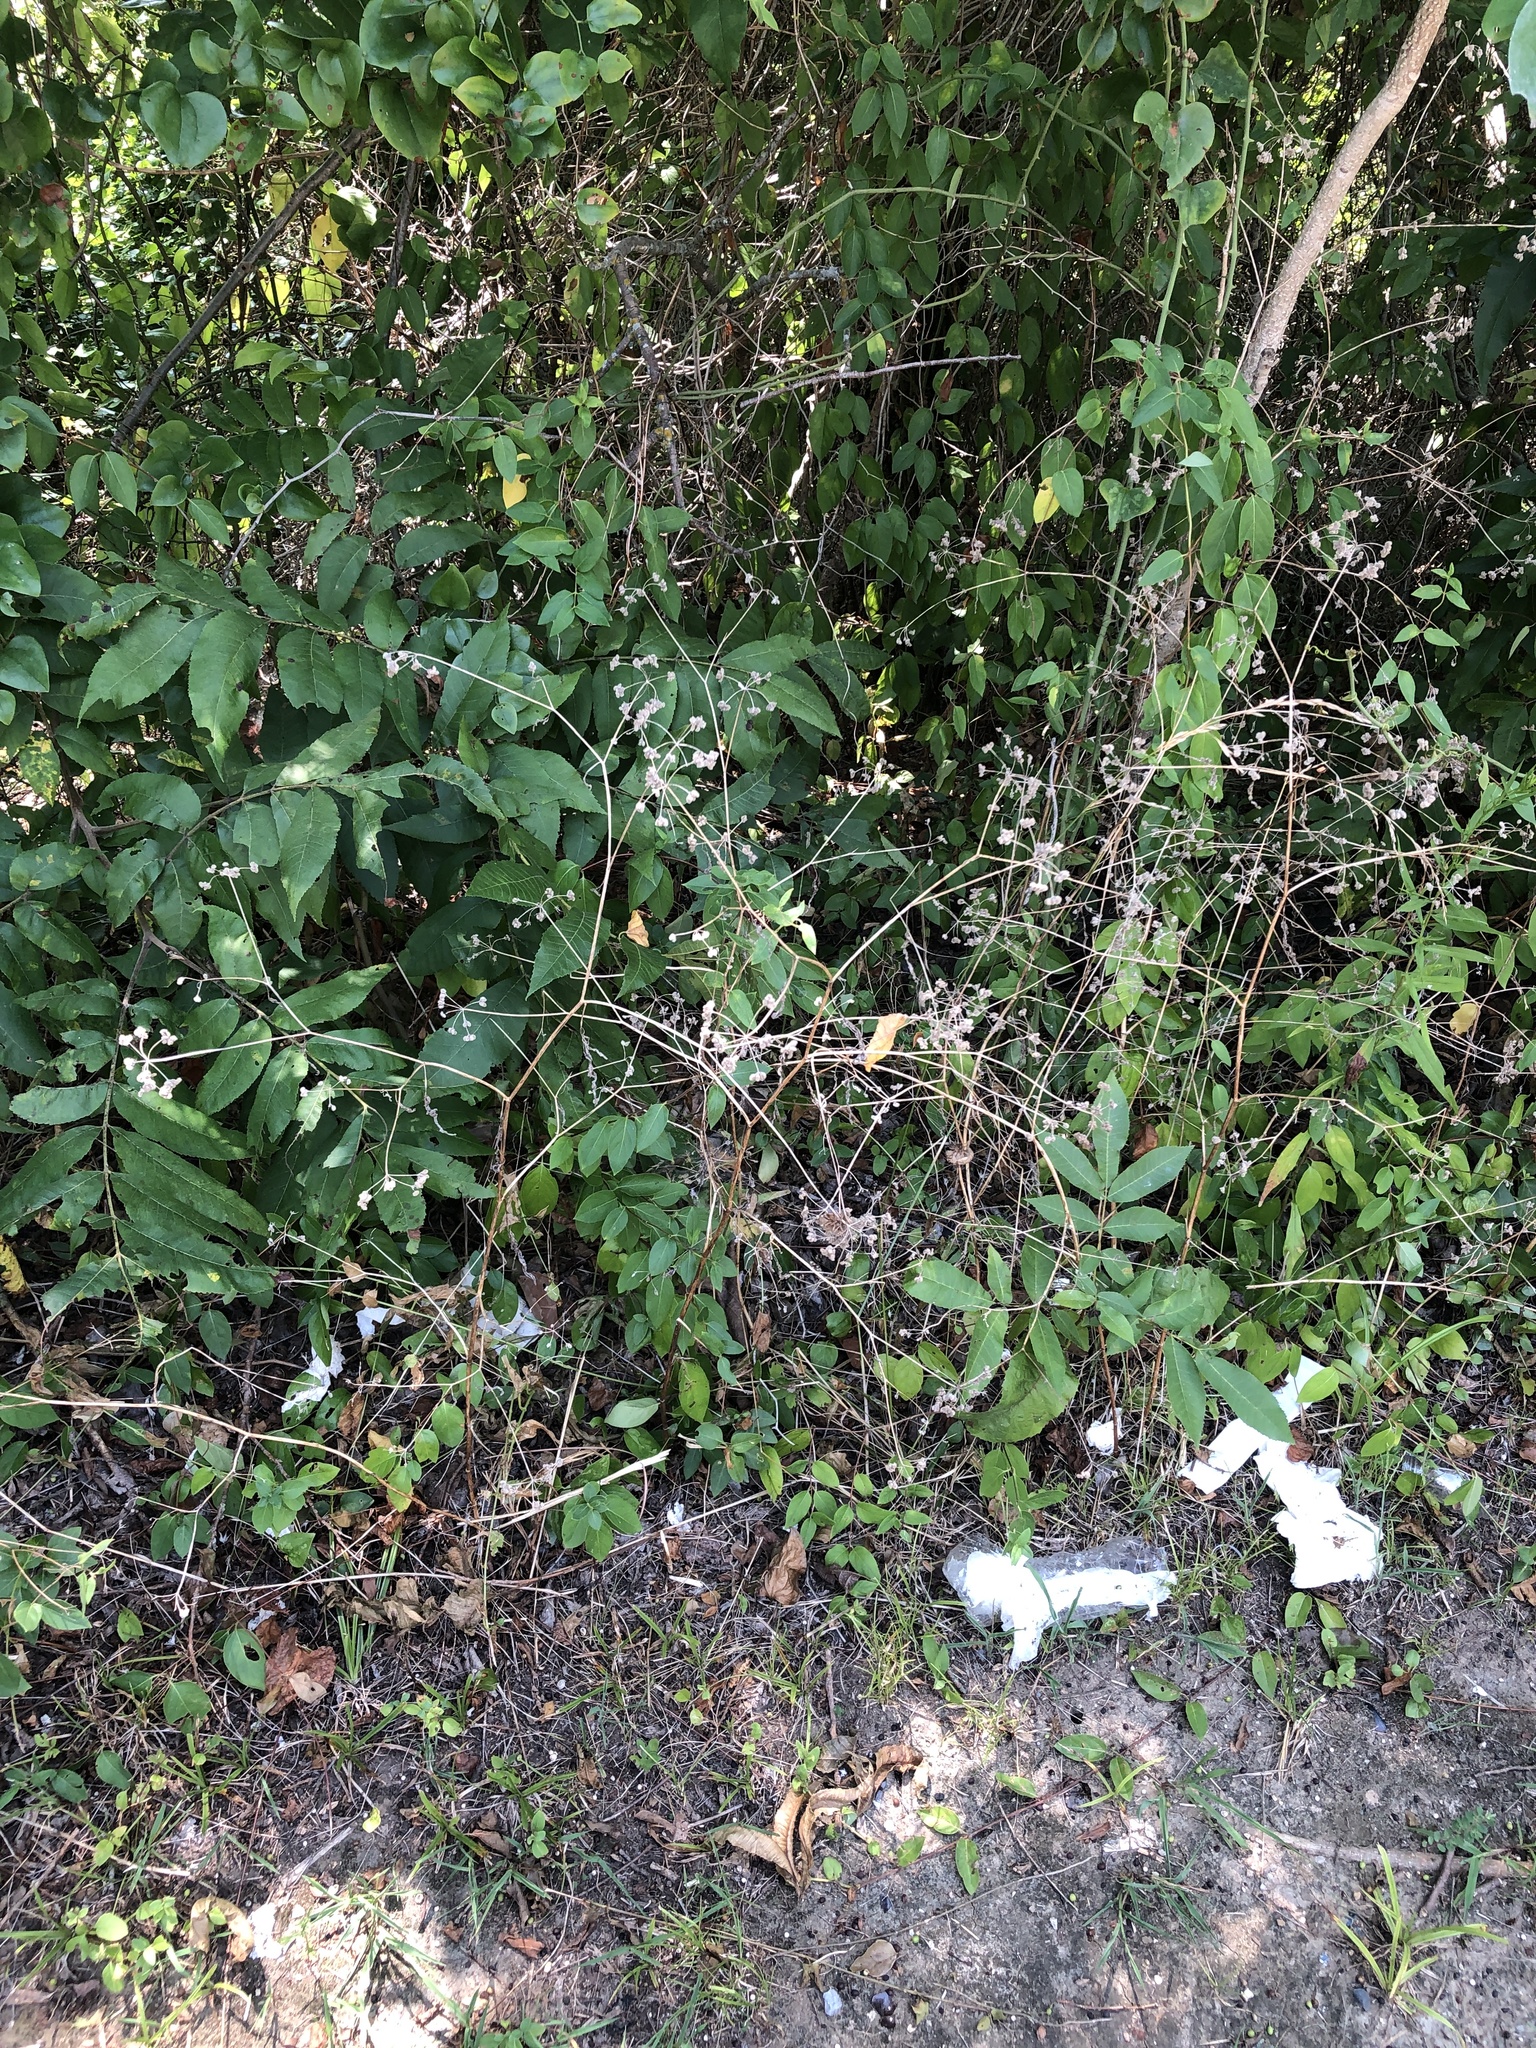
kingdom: Plantae
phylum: Tracheophyta
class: Magnoliopsida
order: Apiales
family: Apiaceae
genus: Torilis
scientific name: Torilis arvensis
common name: Spreading hedge-parsley
